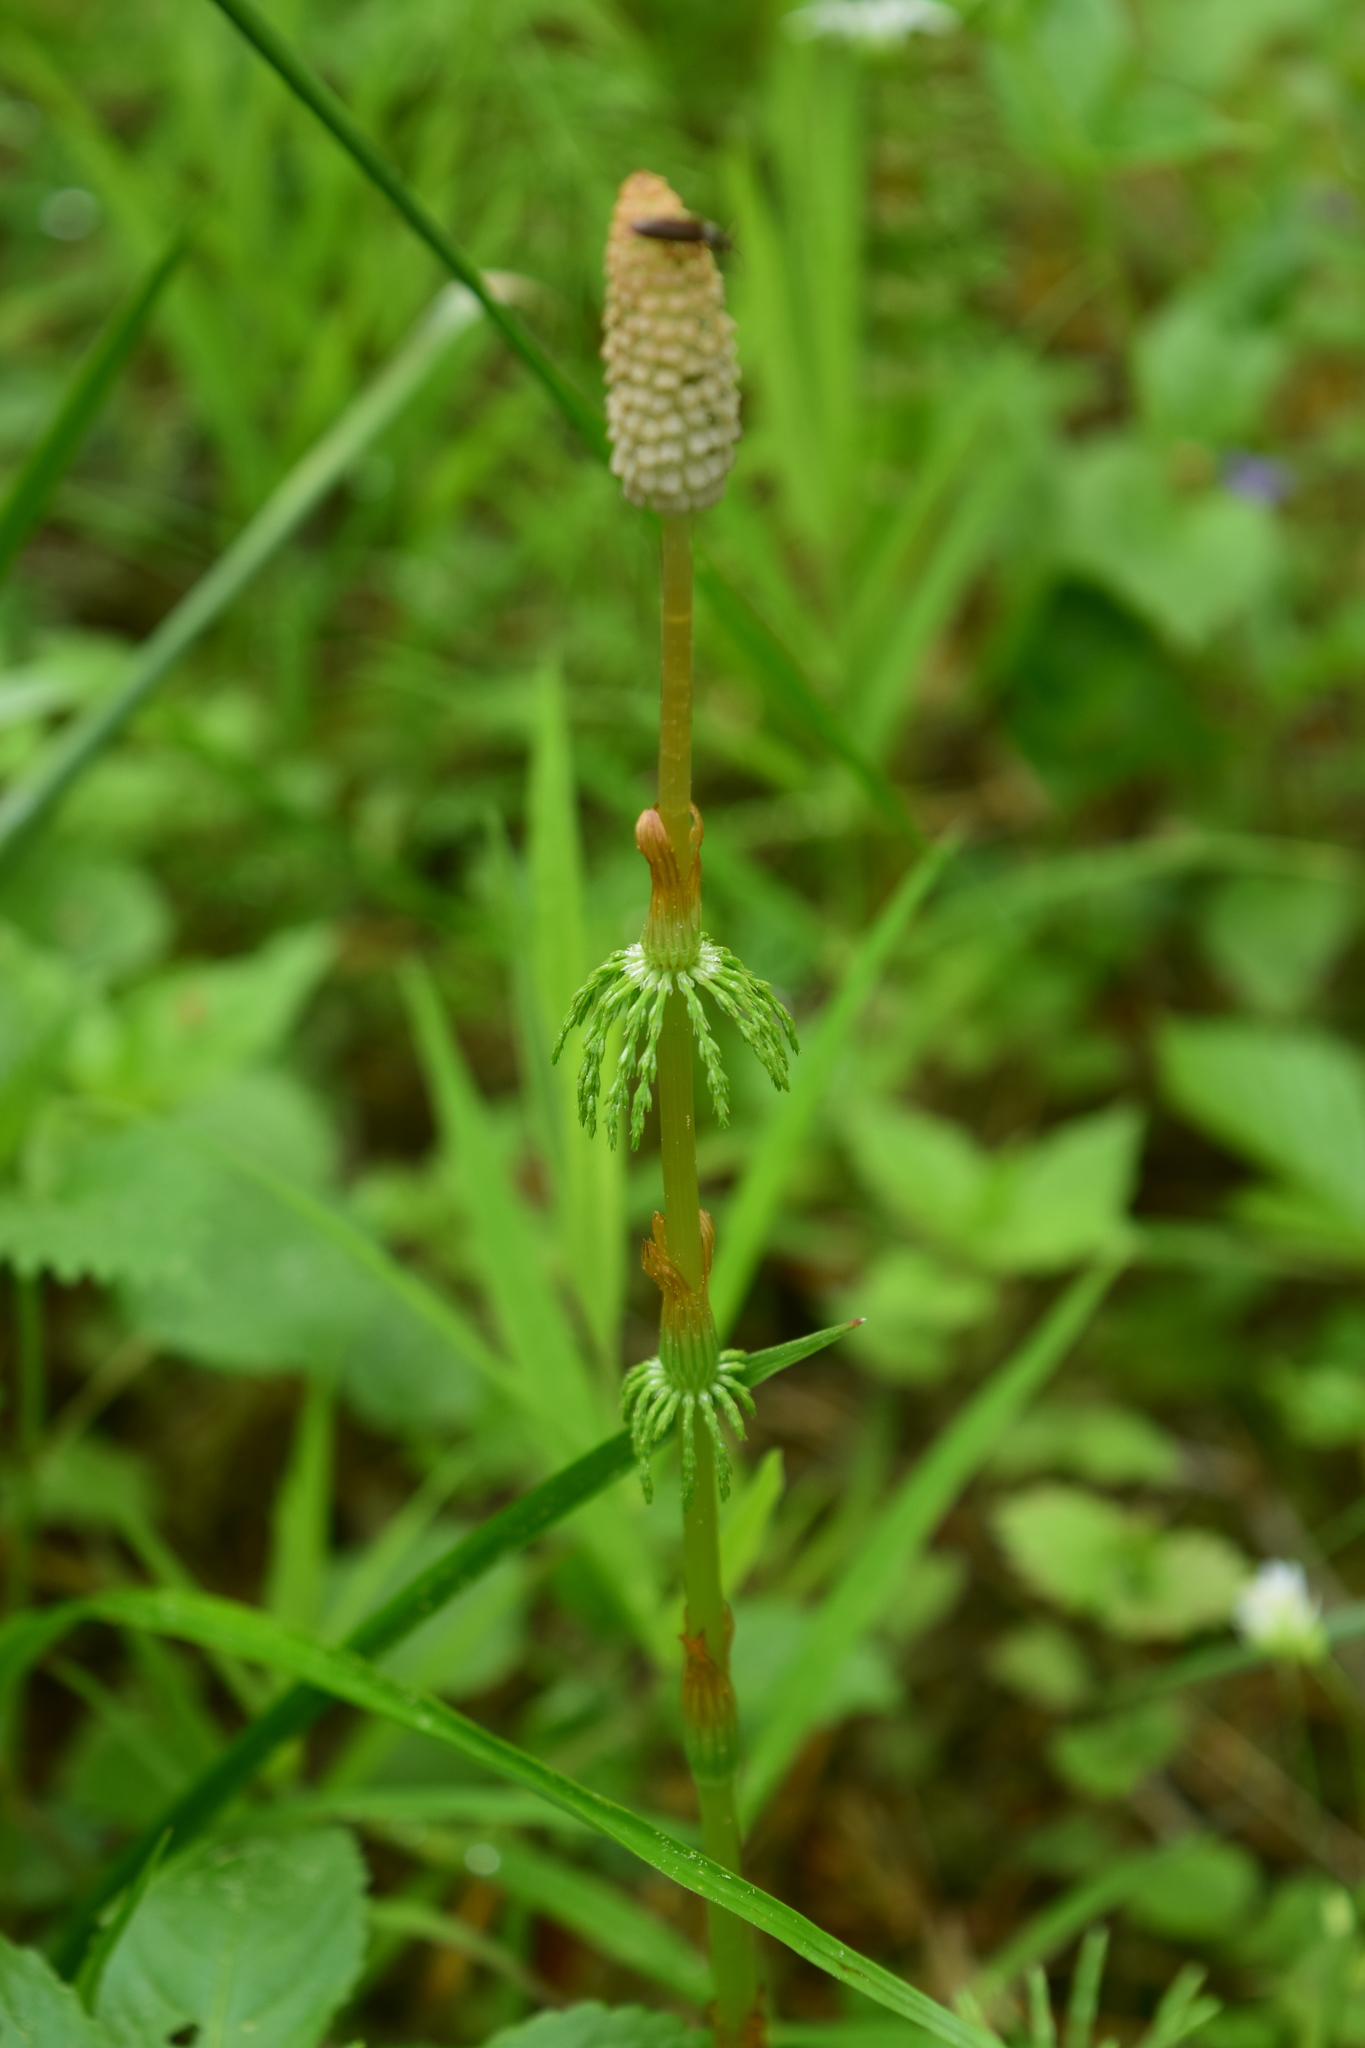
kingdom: Plantae
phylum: Tracheophyta
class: Polypodiopsida
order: Equisetales
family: Equisetaceae
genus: Equisetum
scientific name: Equisetum sylvaticum
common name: Wood horsetail
